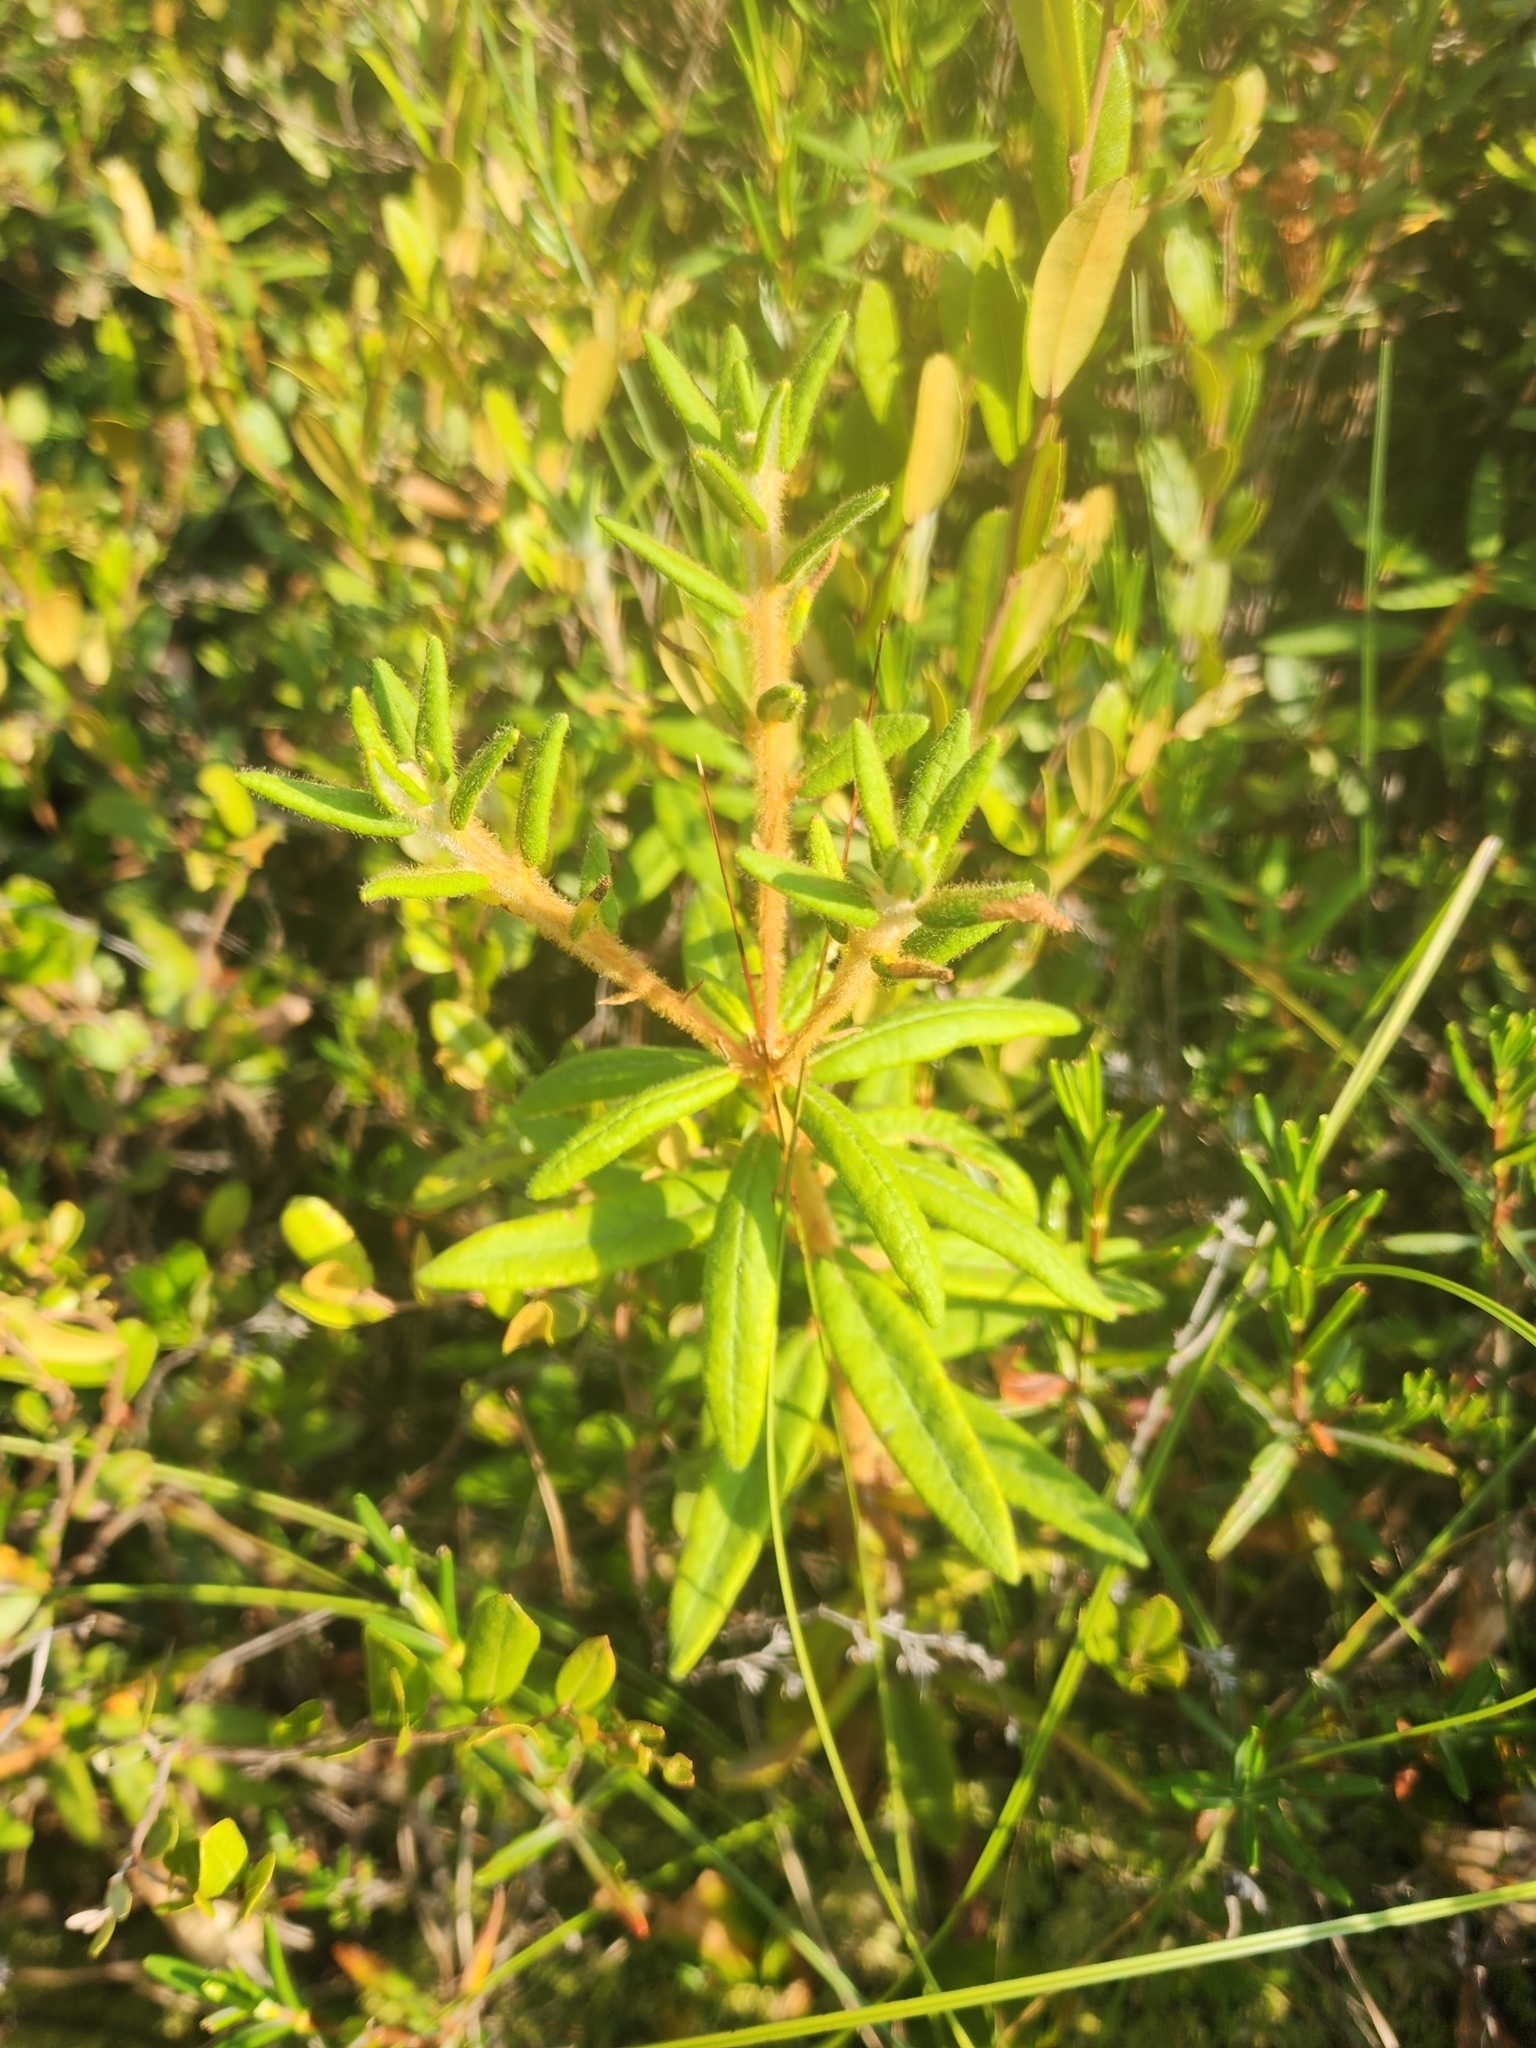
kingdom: Plantae
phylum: Tracheophyta
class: Magnoliopsida
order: Ericales
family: Ericaceae
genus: Rhododendron
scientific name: Rhododendron groenlandicum
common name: Bog labrador tea
